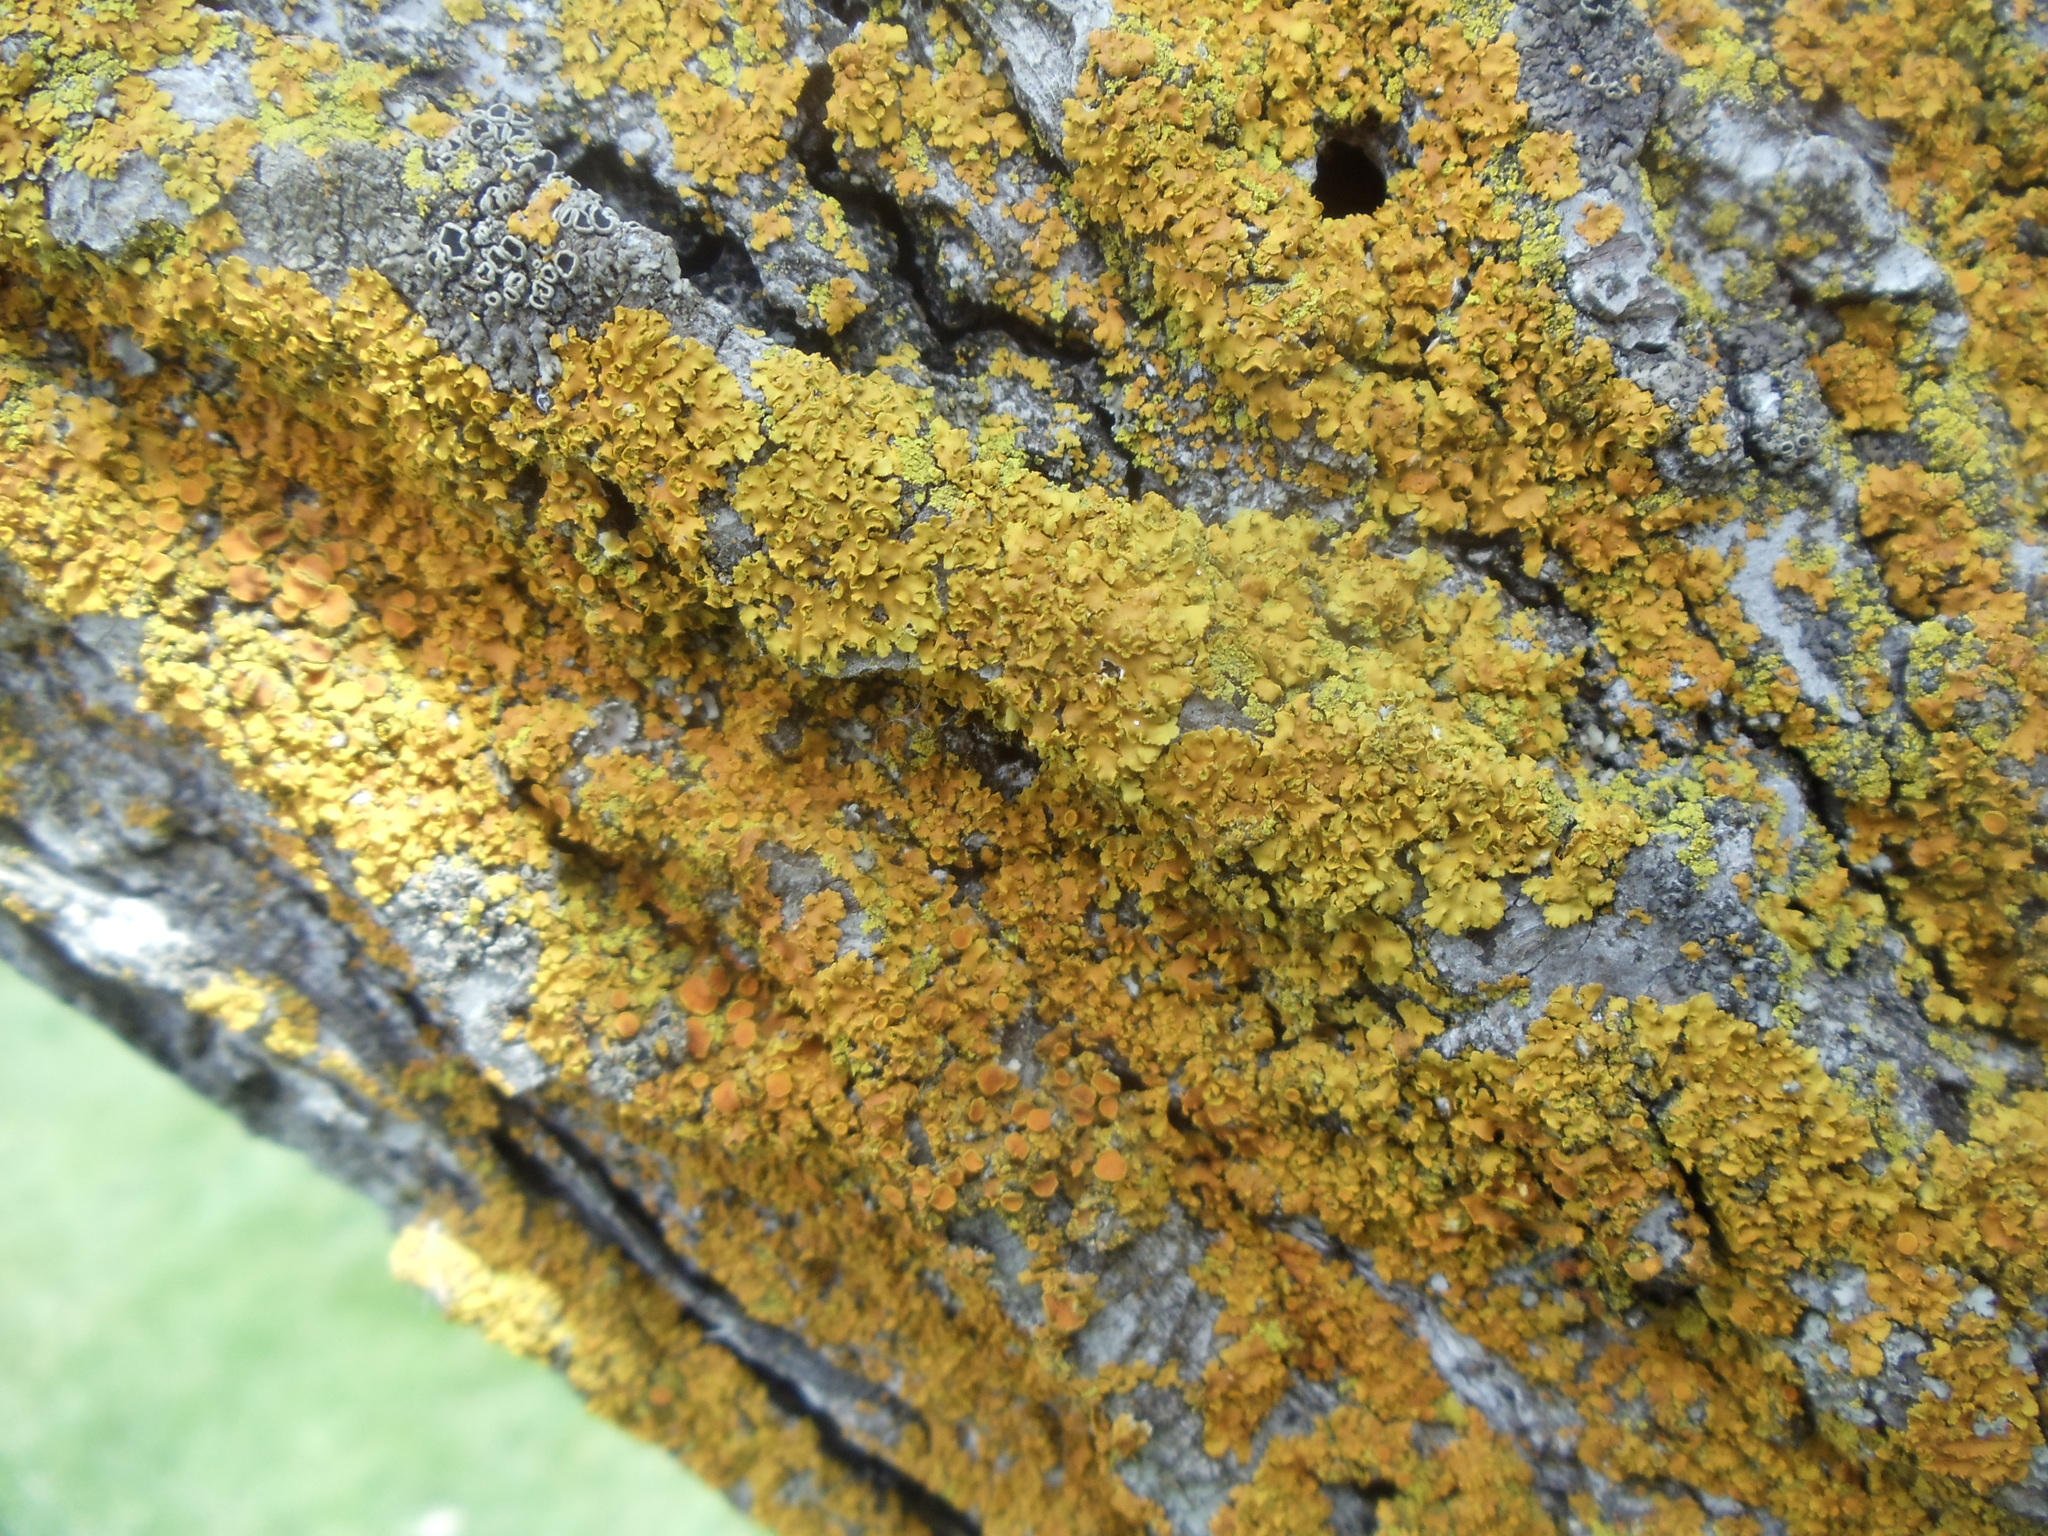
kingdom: Fungi
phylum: Ascomycota
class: Lecanoromycetes
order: Teloschistales
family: Teloschistaceae
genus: Oxneria
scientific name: Oxneria fallax
